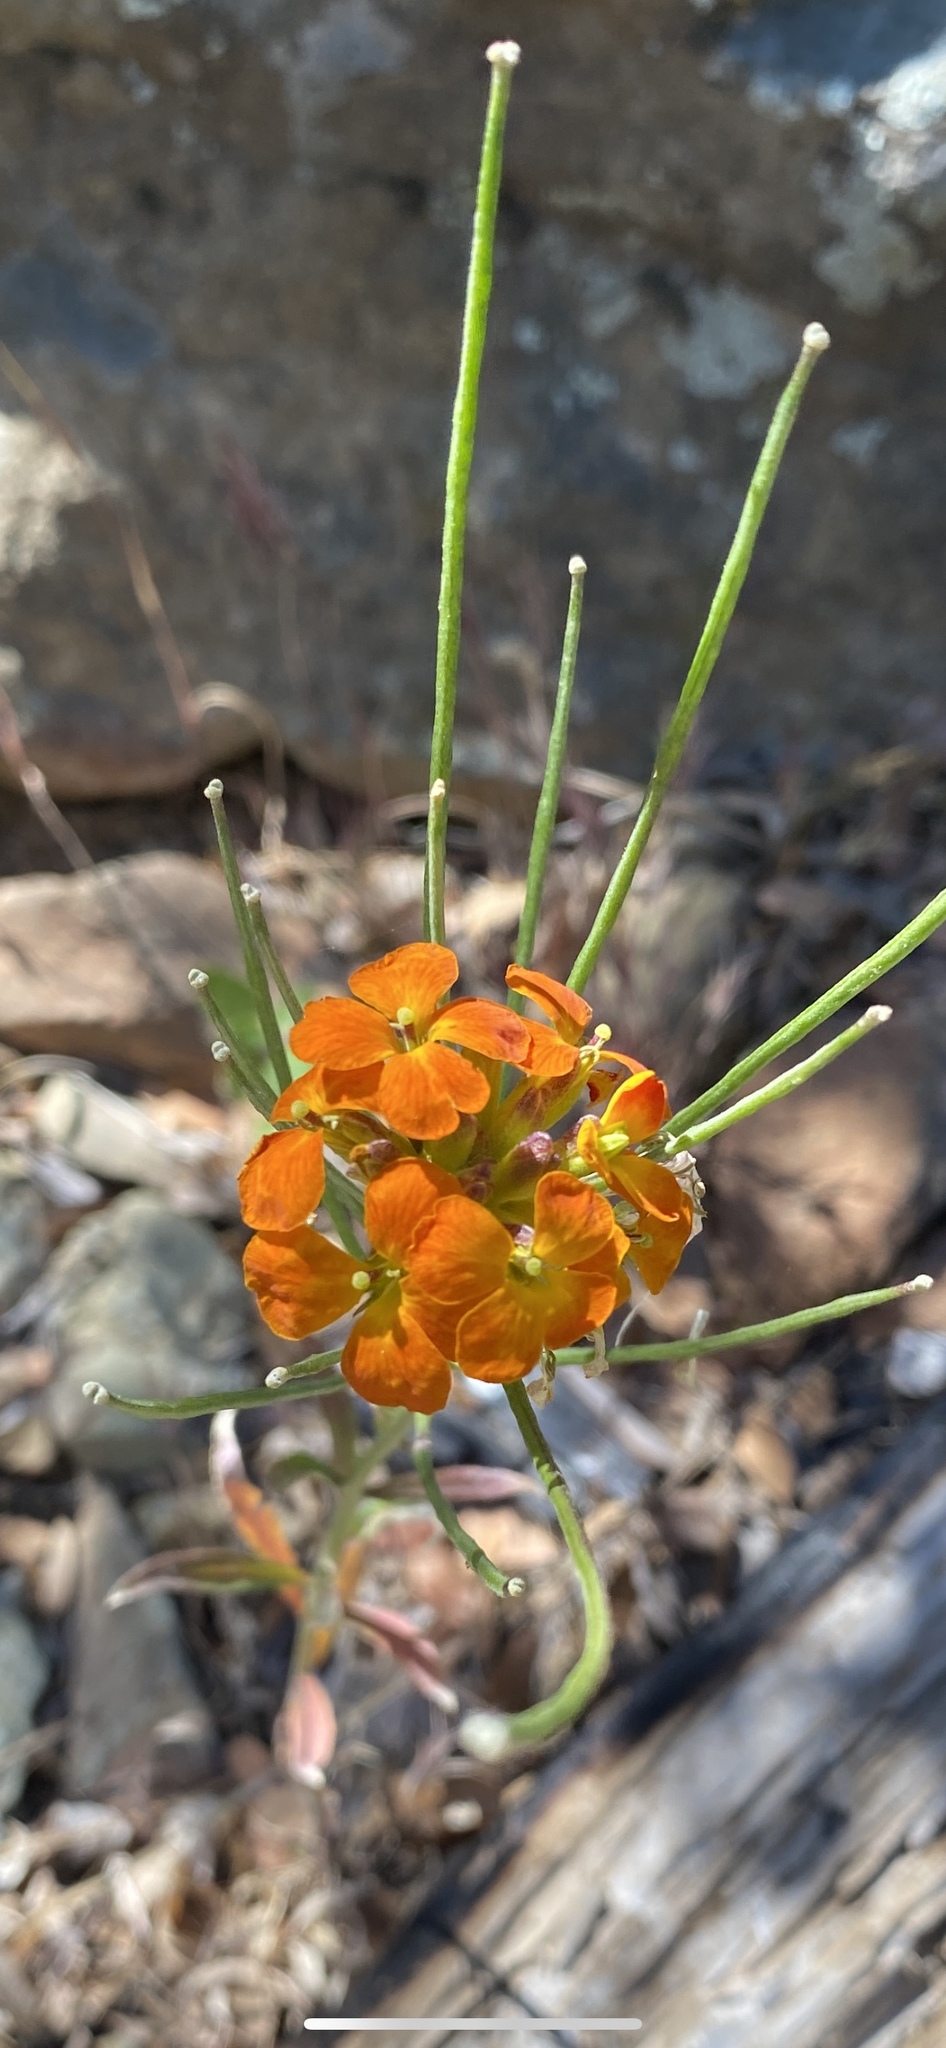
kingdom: Plantae
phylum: Tracheophyta
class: Magnoliopsida
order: Brassicales
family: Brassicaceae
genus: Erysimum
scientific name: Erysimum capitatum
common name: Western wallflower
